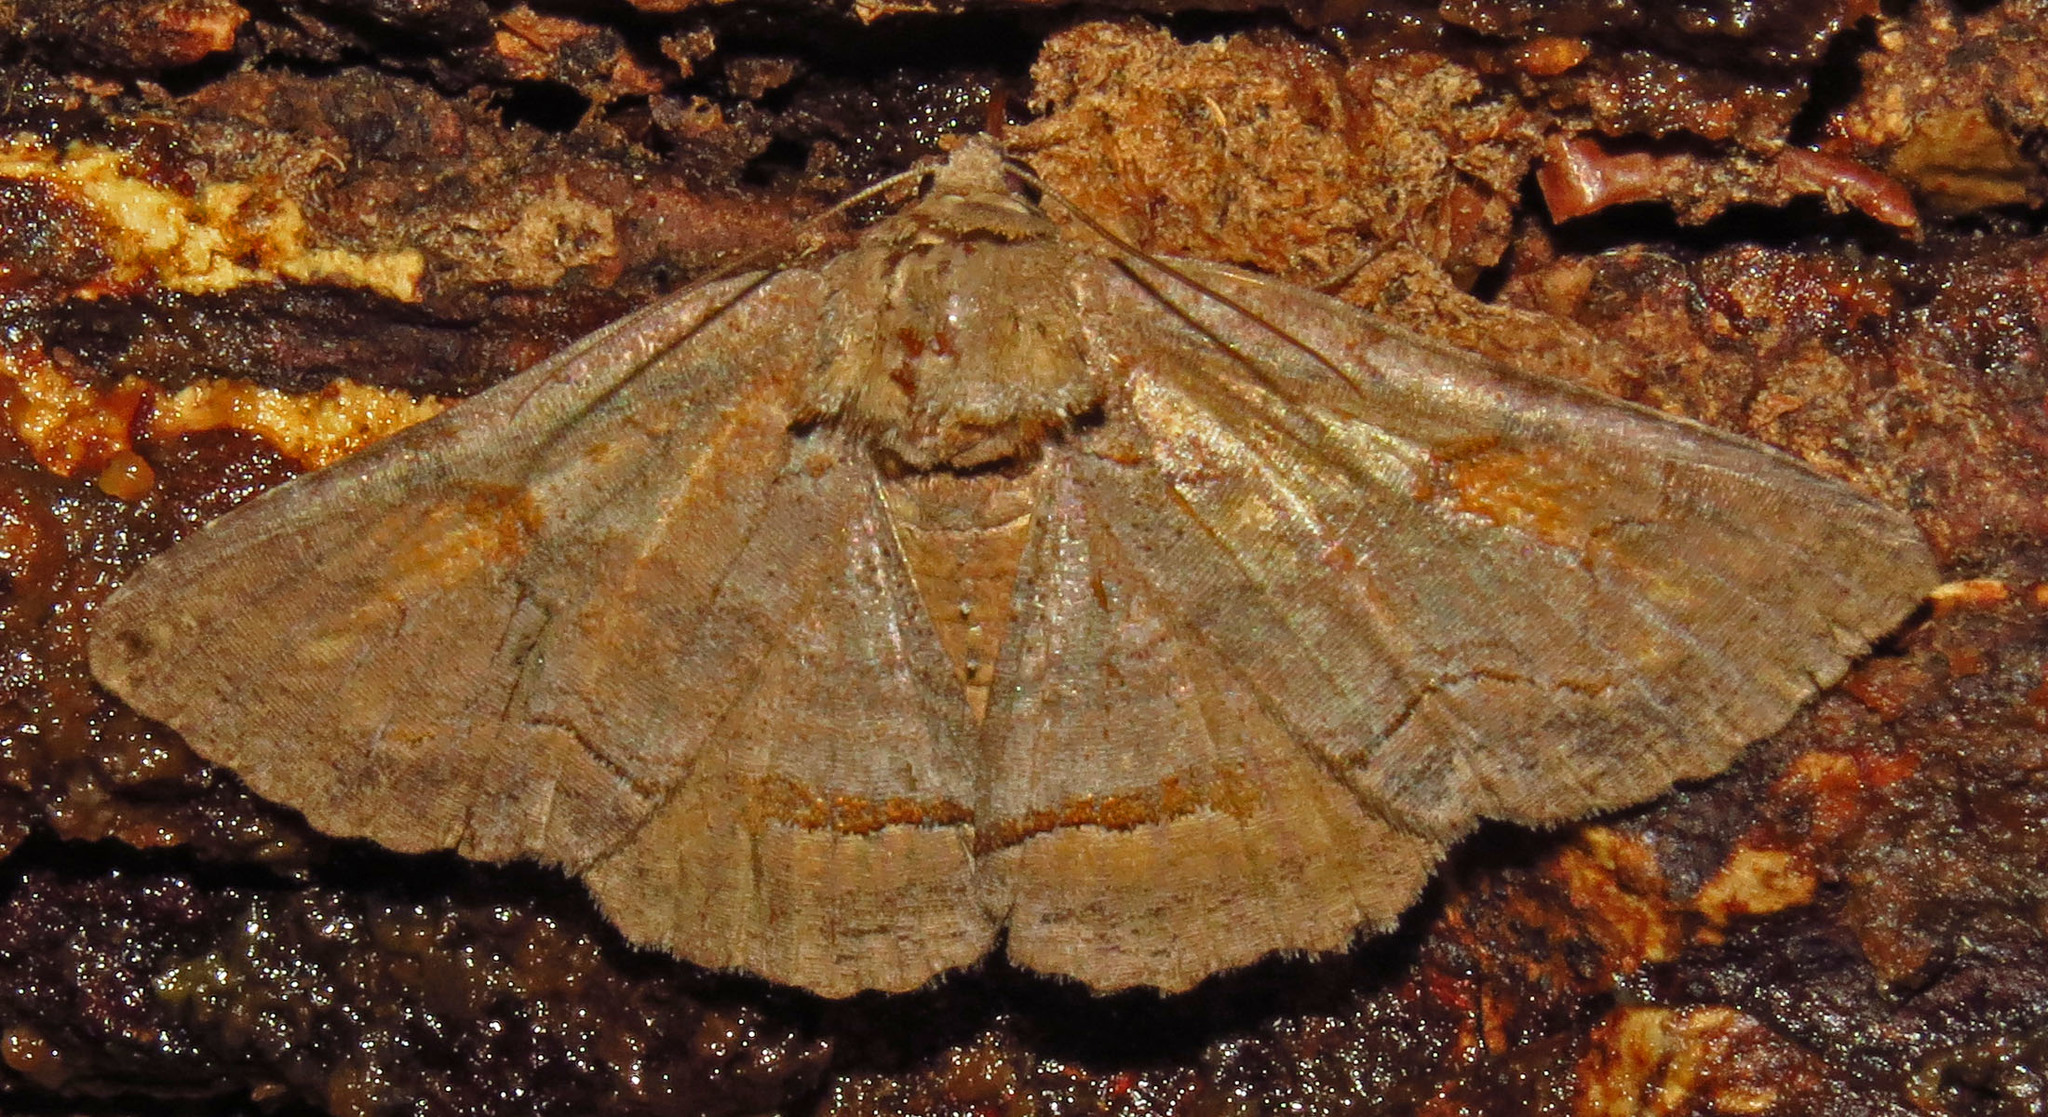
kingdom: Animalia
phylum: Arthropoda
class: Insecta
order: Lepidoptera
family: Erebidae
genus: Zale
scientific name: Zale metatoides
